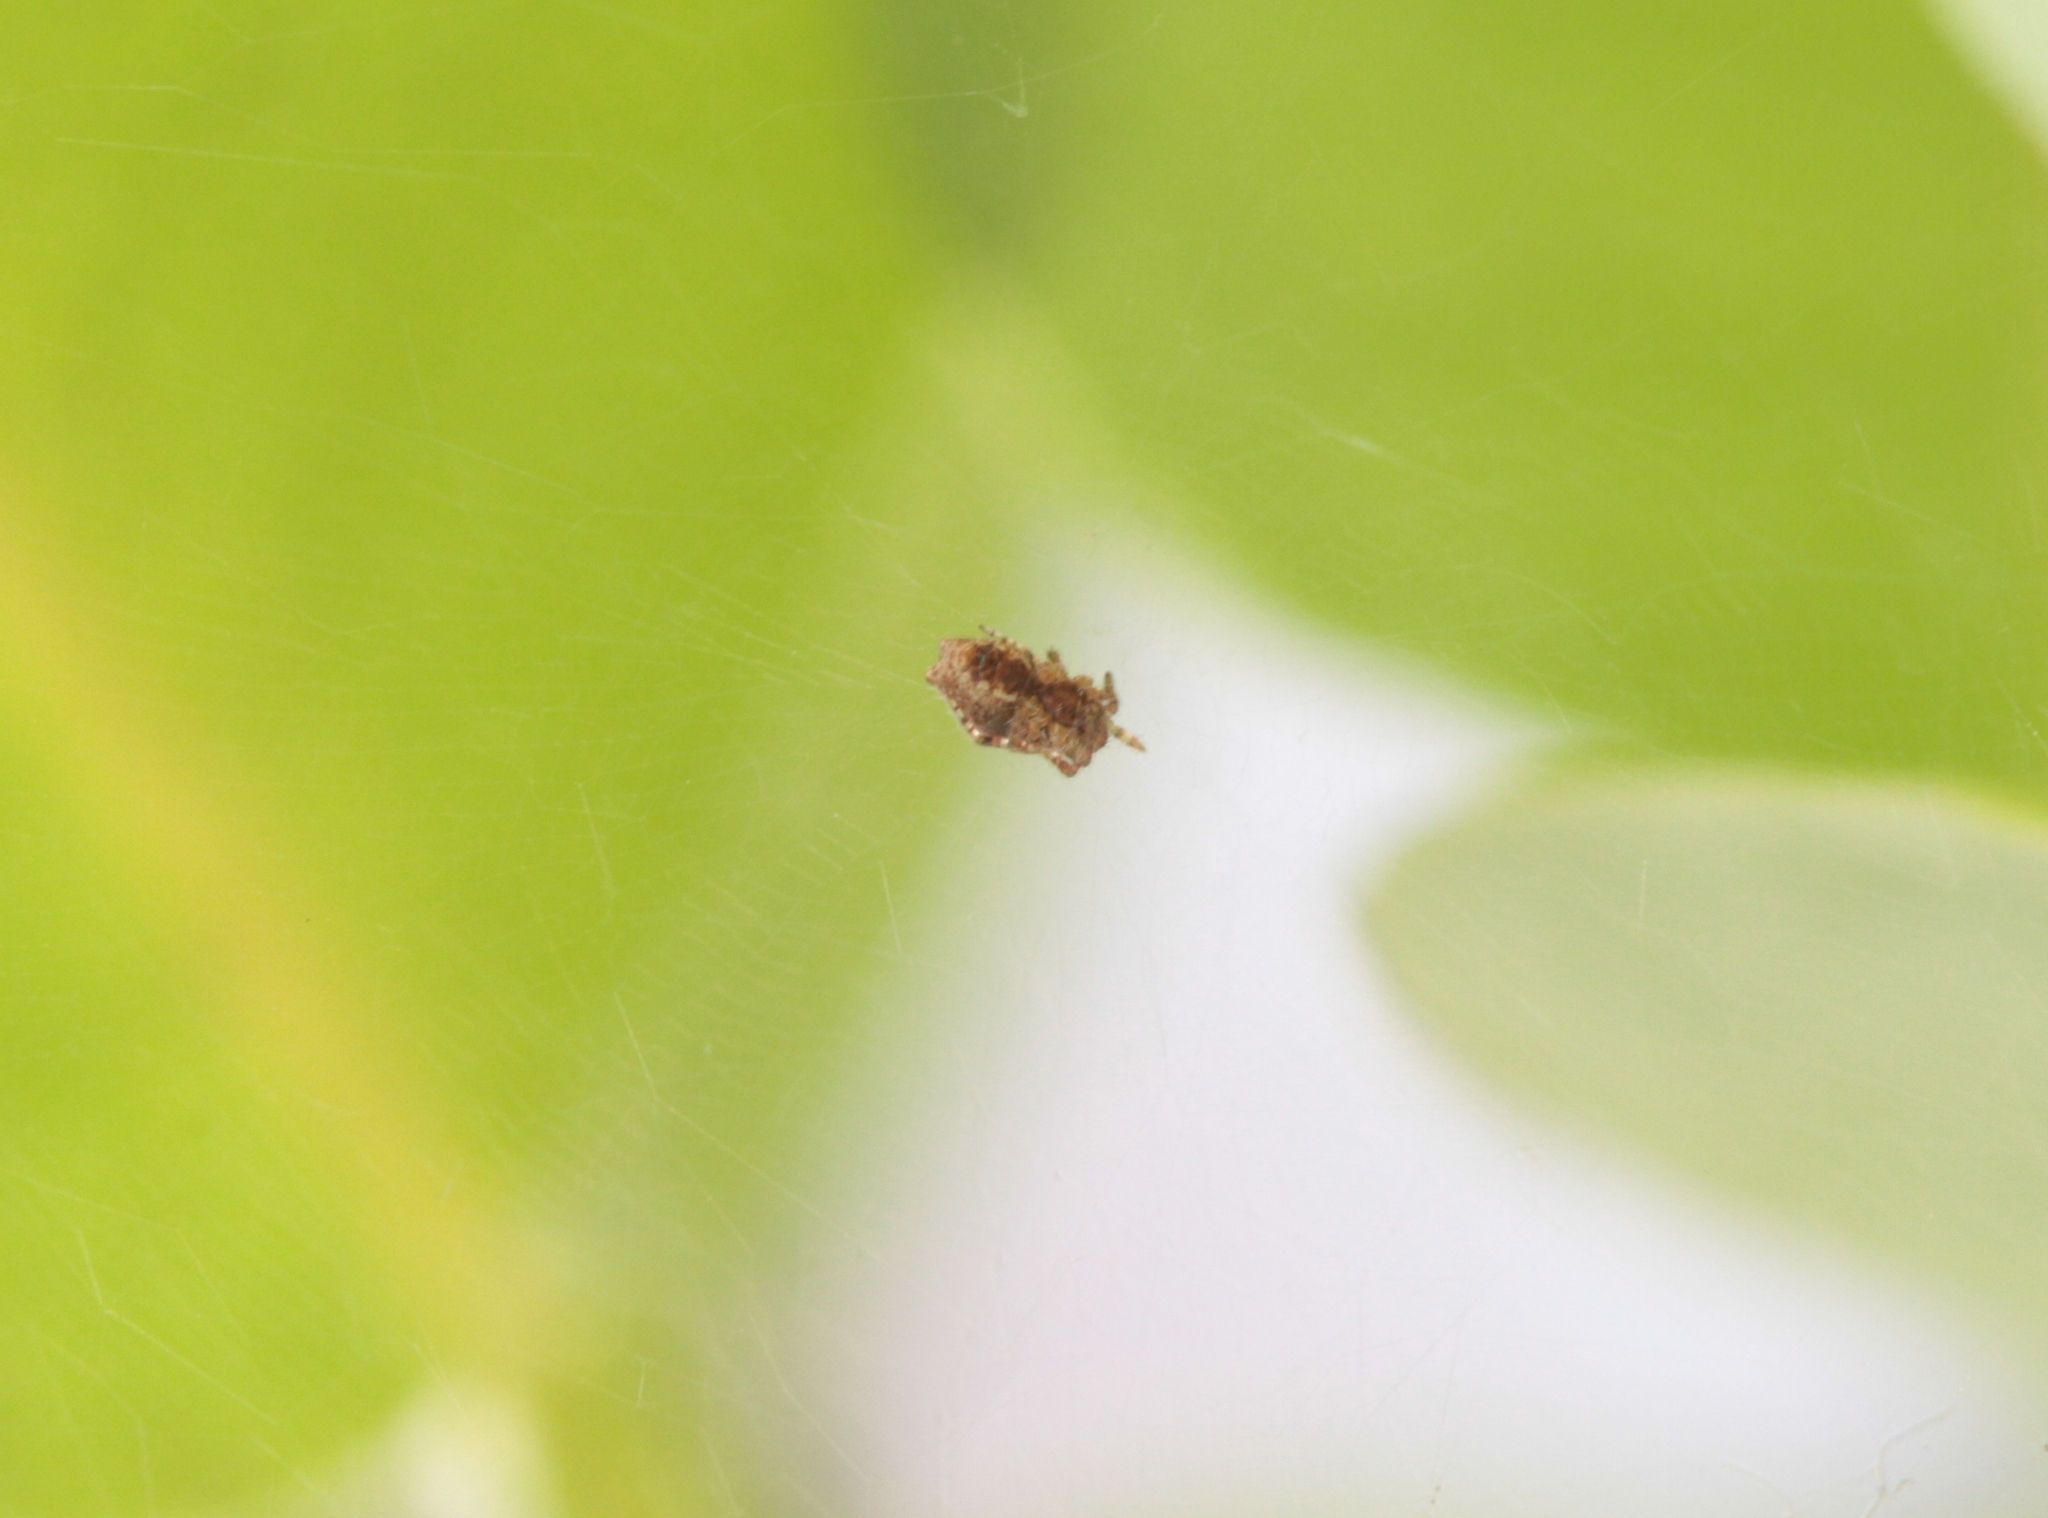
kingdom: Animalia
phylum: Arthropoda
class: Arachnida
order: Araneae
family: Araneidae
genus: Cyrtophora
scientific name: Cyrtophora citricola
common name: Orb weavers
